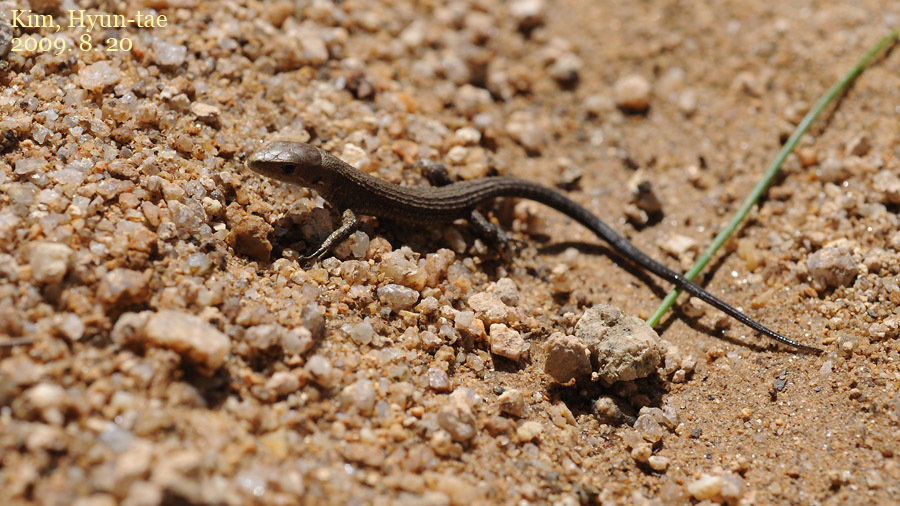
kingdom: Animalia
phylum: Chordata
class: Squamata
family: Lacertidae
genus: Takydromus
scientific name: Takydromus amurensis
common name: Amur grass lizard
